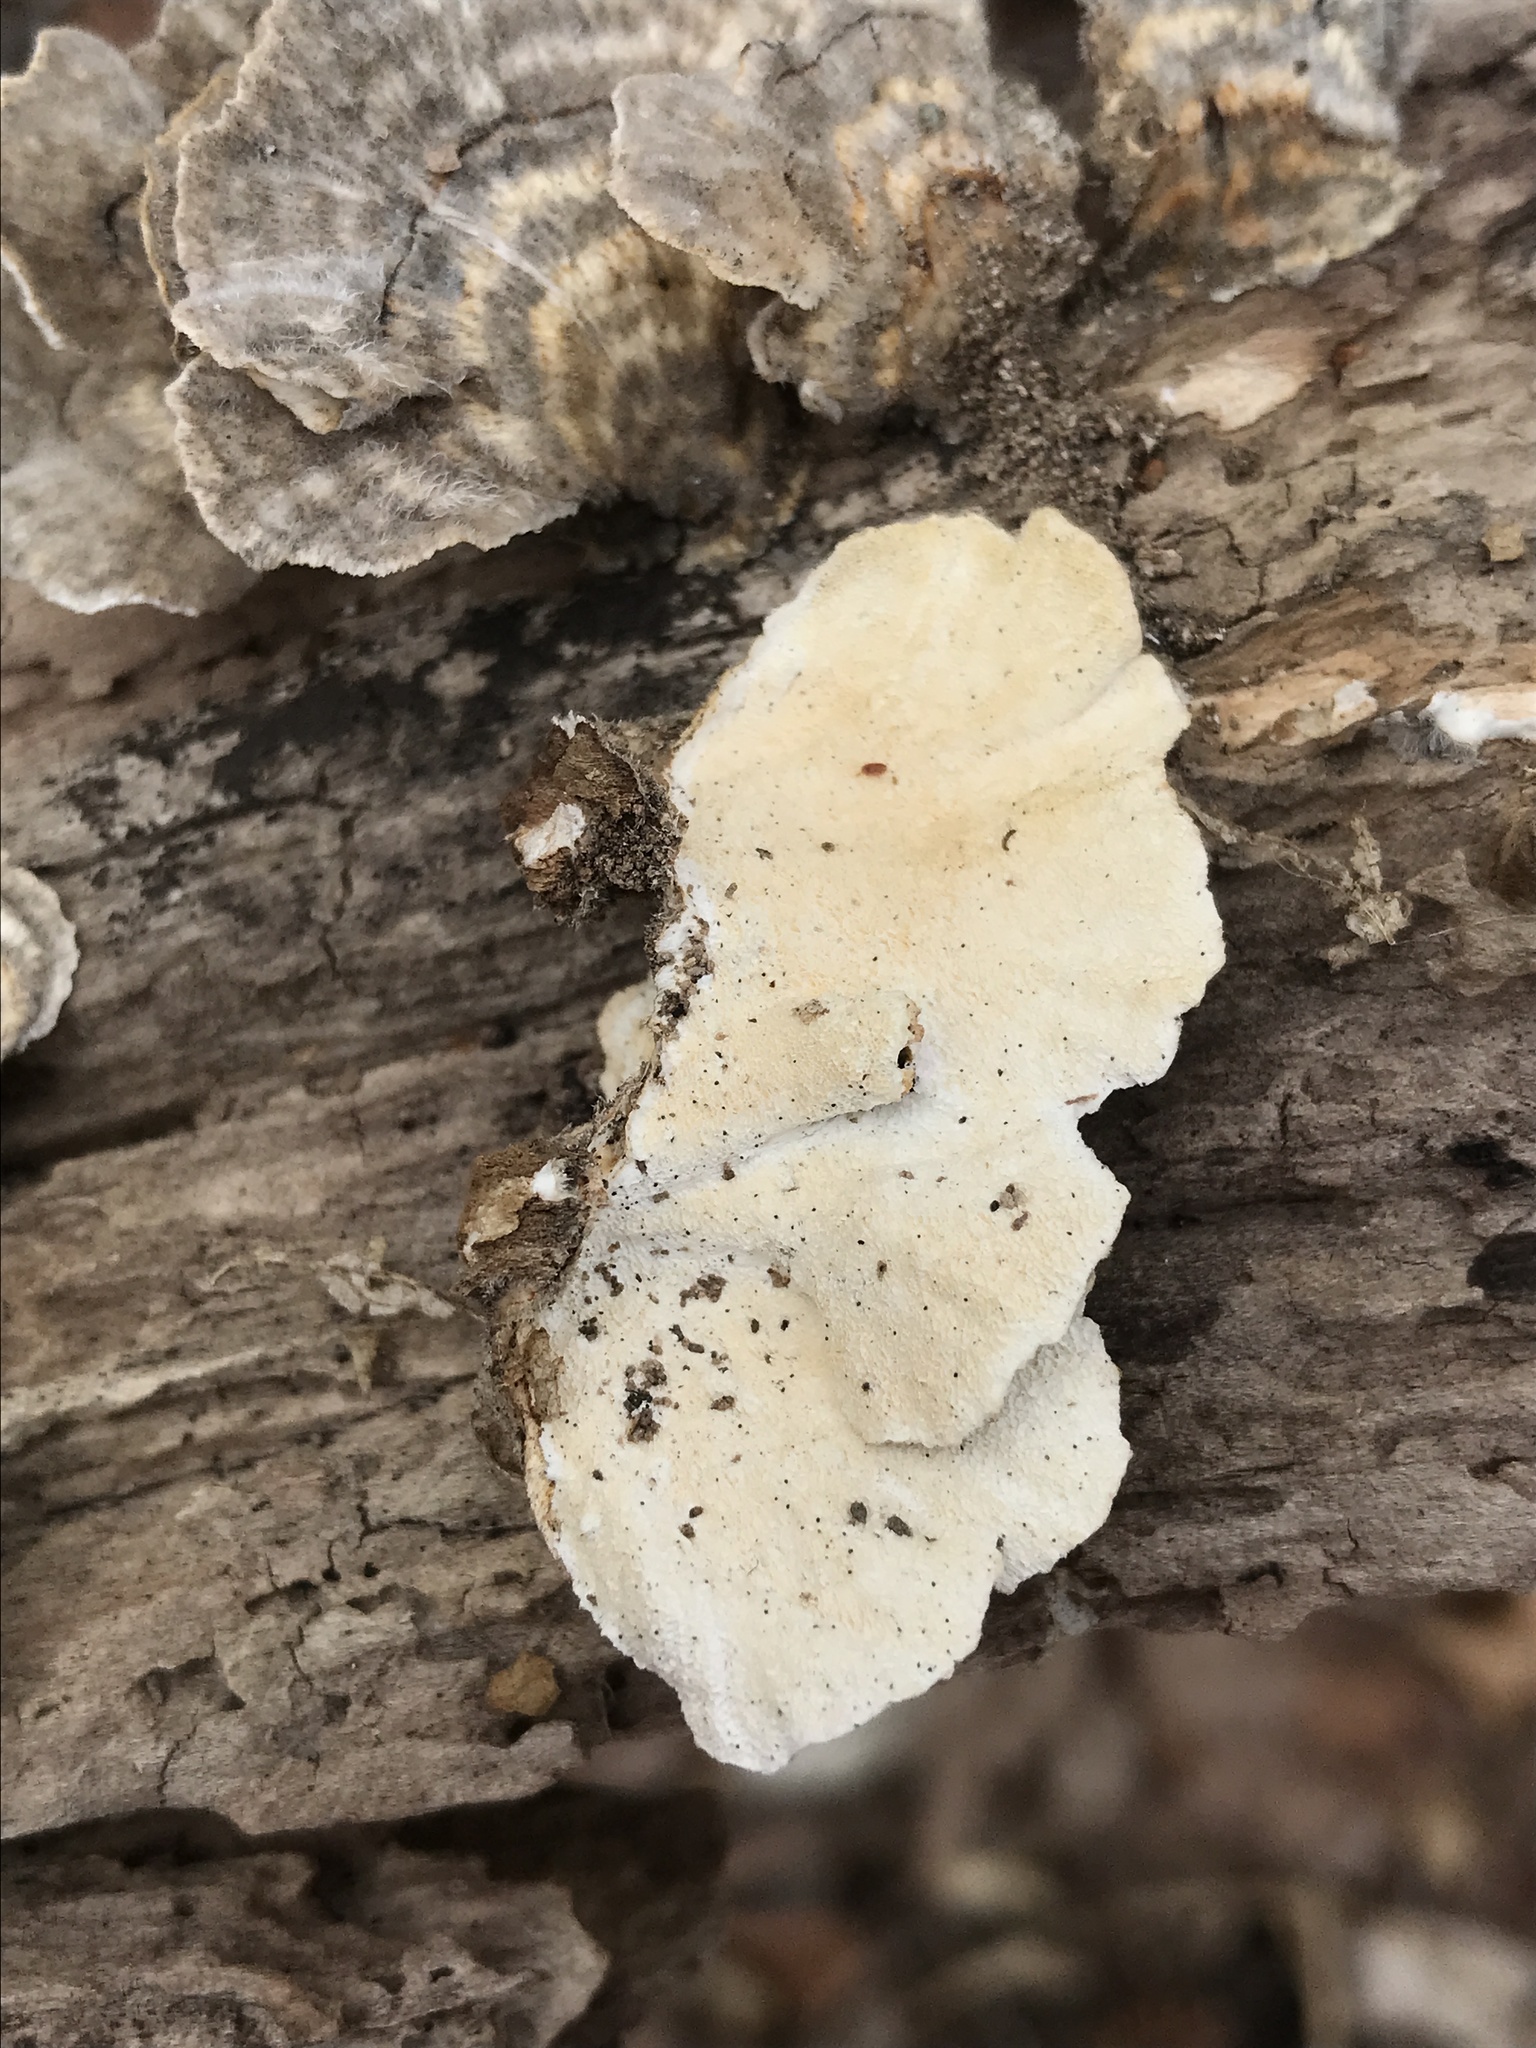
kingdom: Fungi
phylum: Basidiomycota
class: Agaricomycetes
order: Polyporales
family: Polyporaceae
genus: Trametes
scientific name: Trametes versicolor
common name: Turkeytail
